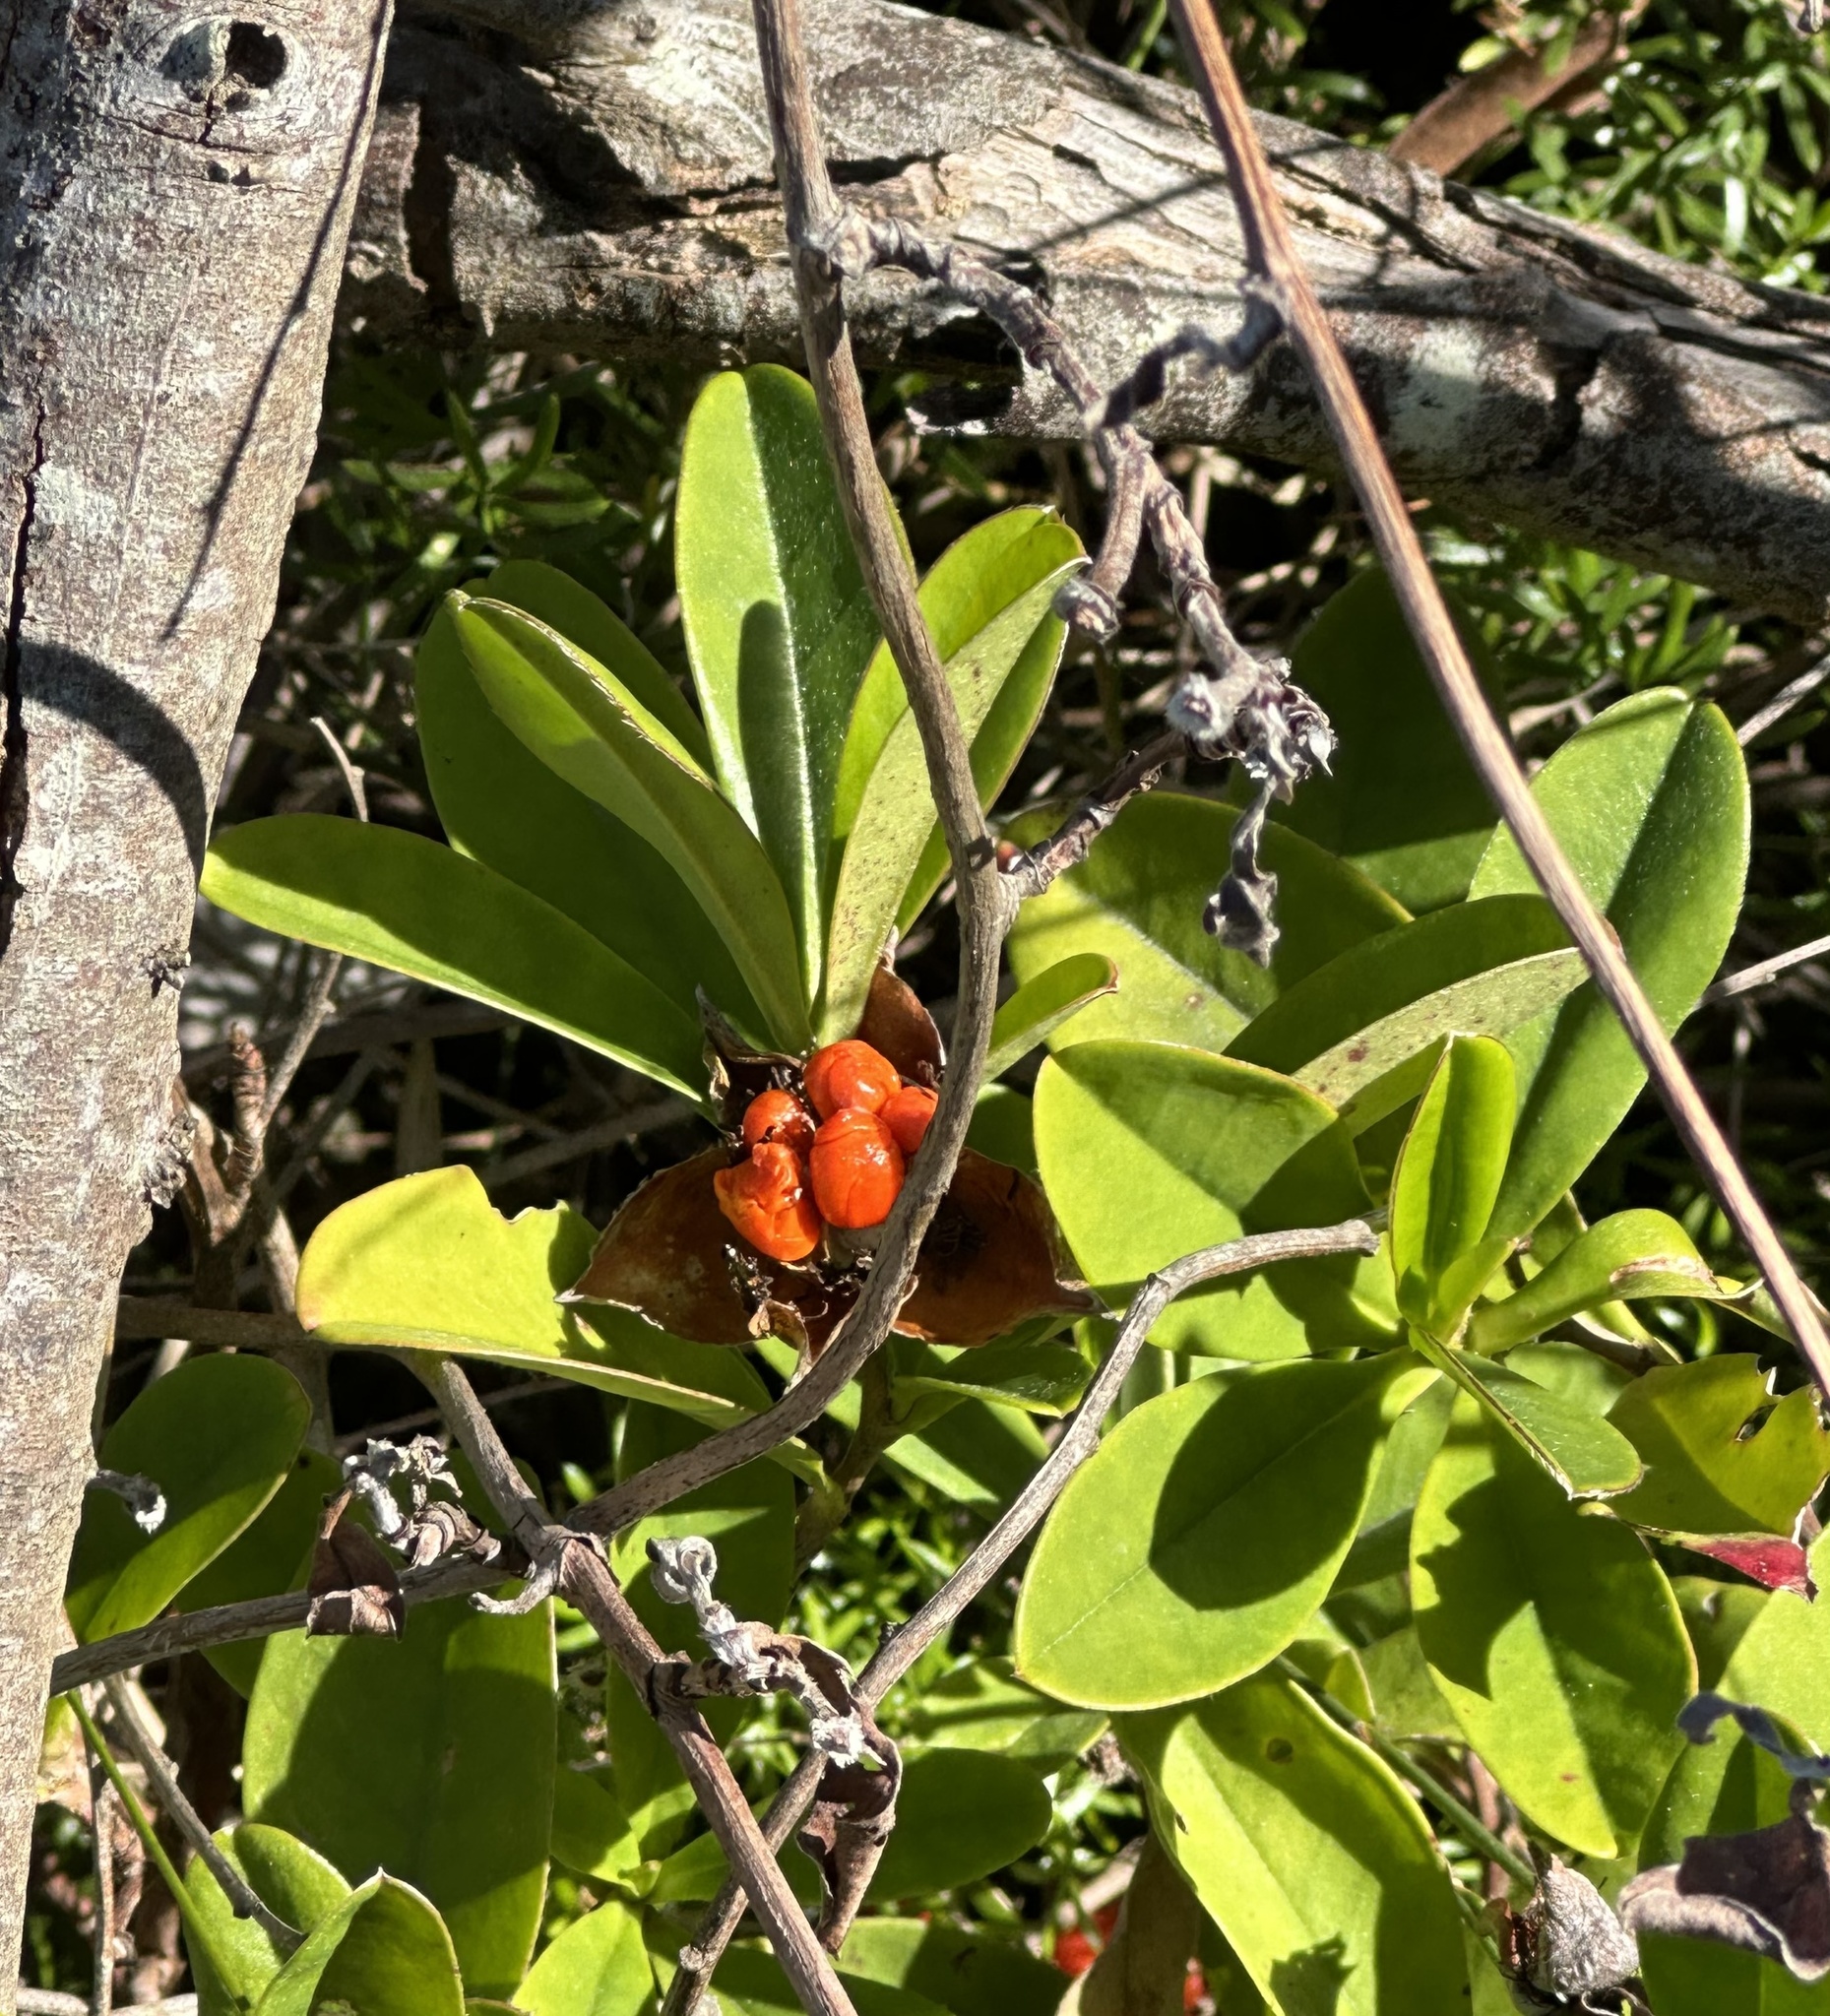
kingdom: Plantae
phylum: Tracheophyta
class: Magnoliopsida
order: Dilleniales
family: Dilleniaceae
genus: Hibbertia
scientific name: Hibbertia scandens
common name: Climbing guinea-flower
